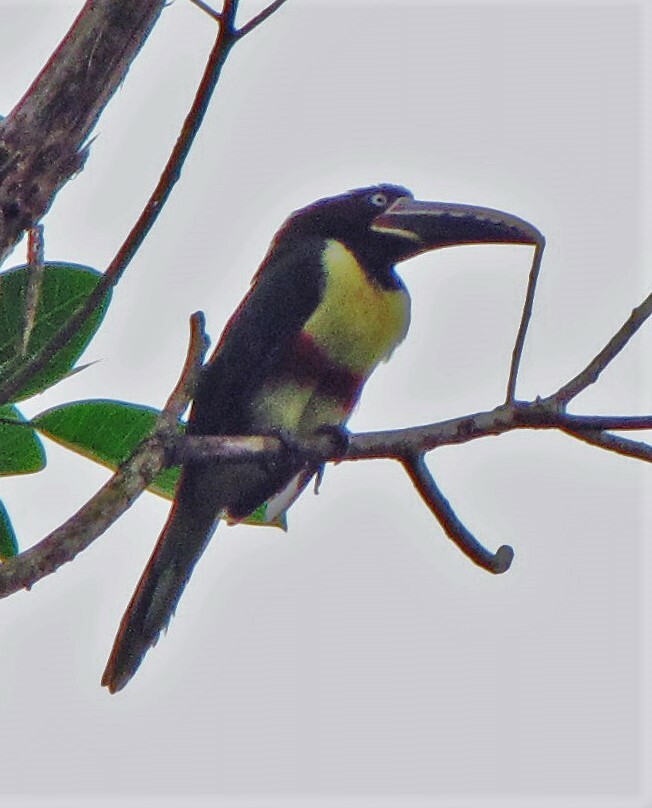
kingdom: Animalia
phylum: Chordata
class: Aves
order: Piciformes
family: Ramphastidae
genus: Pteroglossus
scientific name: Pteroglossus castanotis
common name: Chestnut-eared aracari
